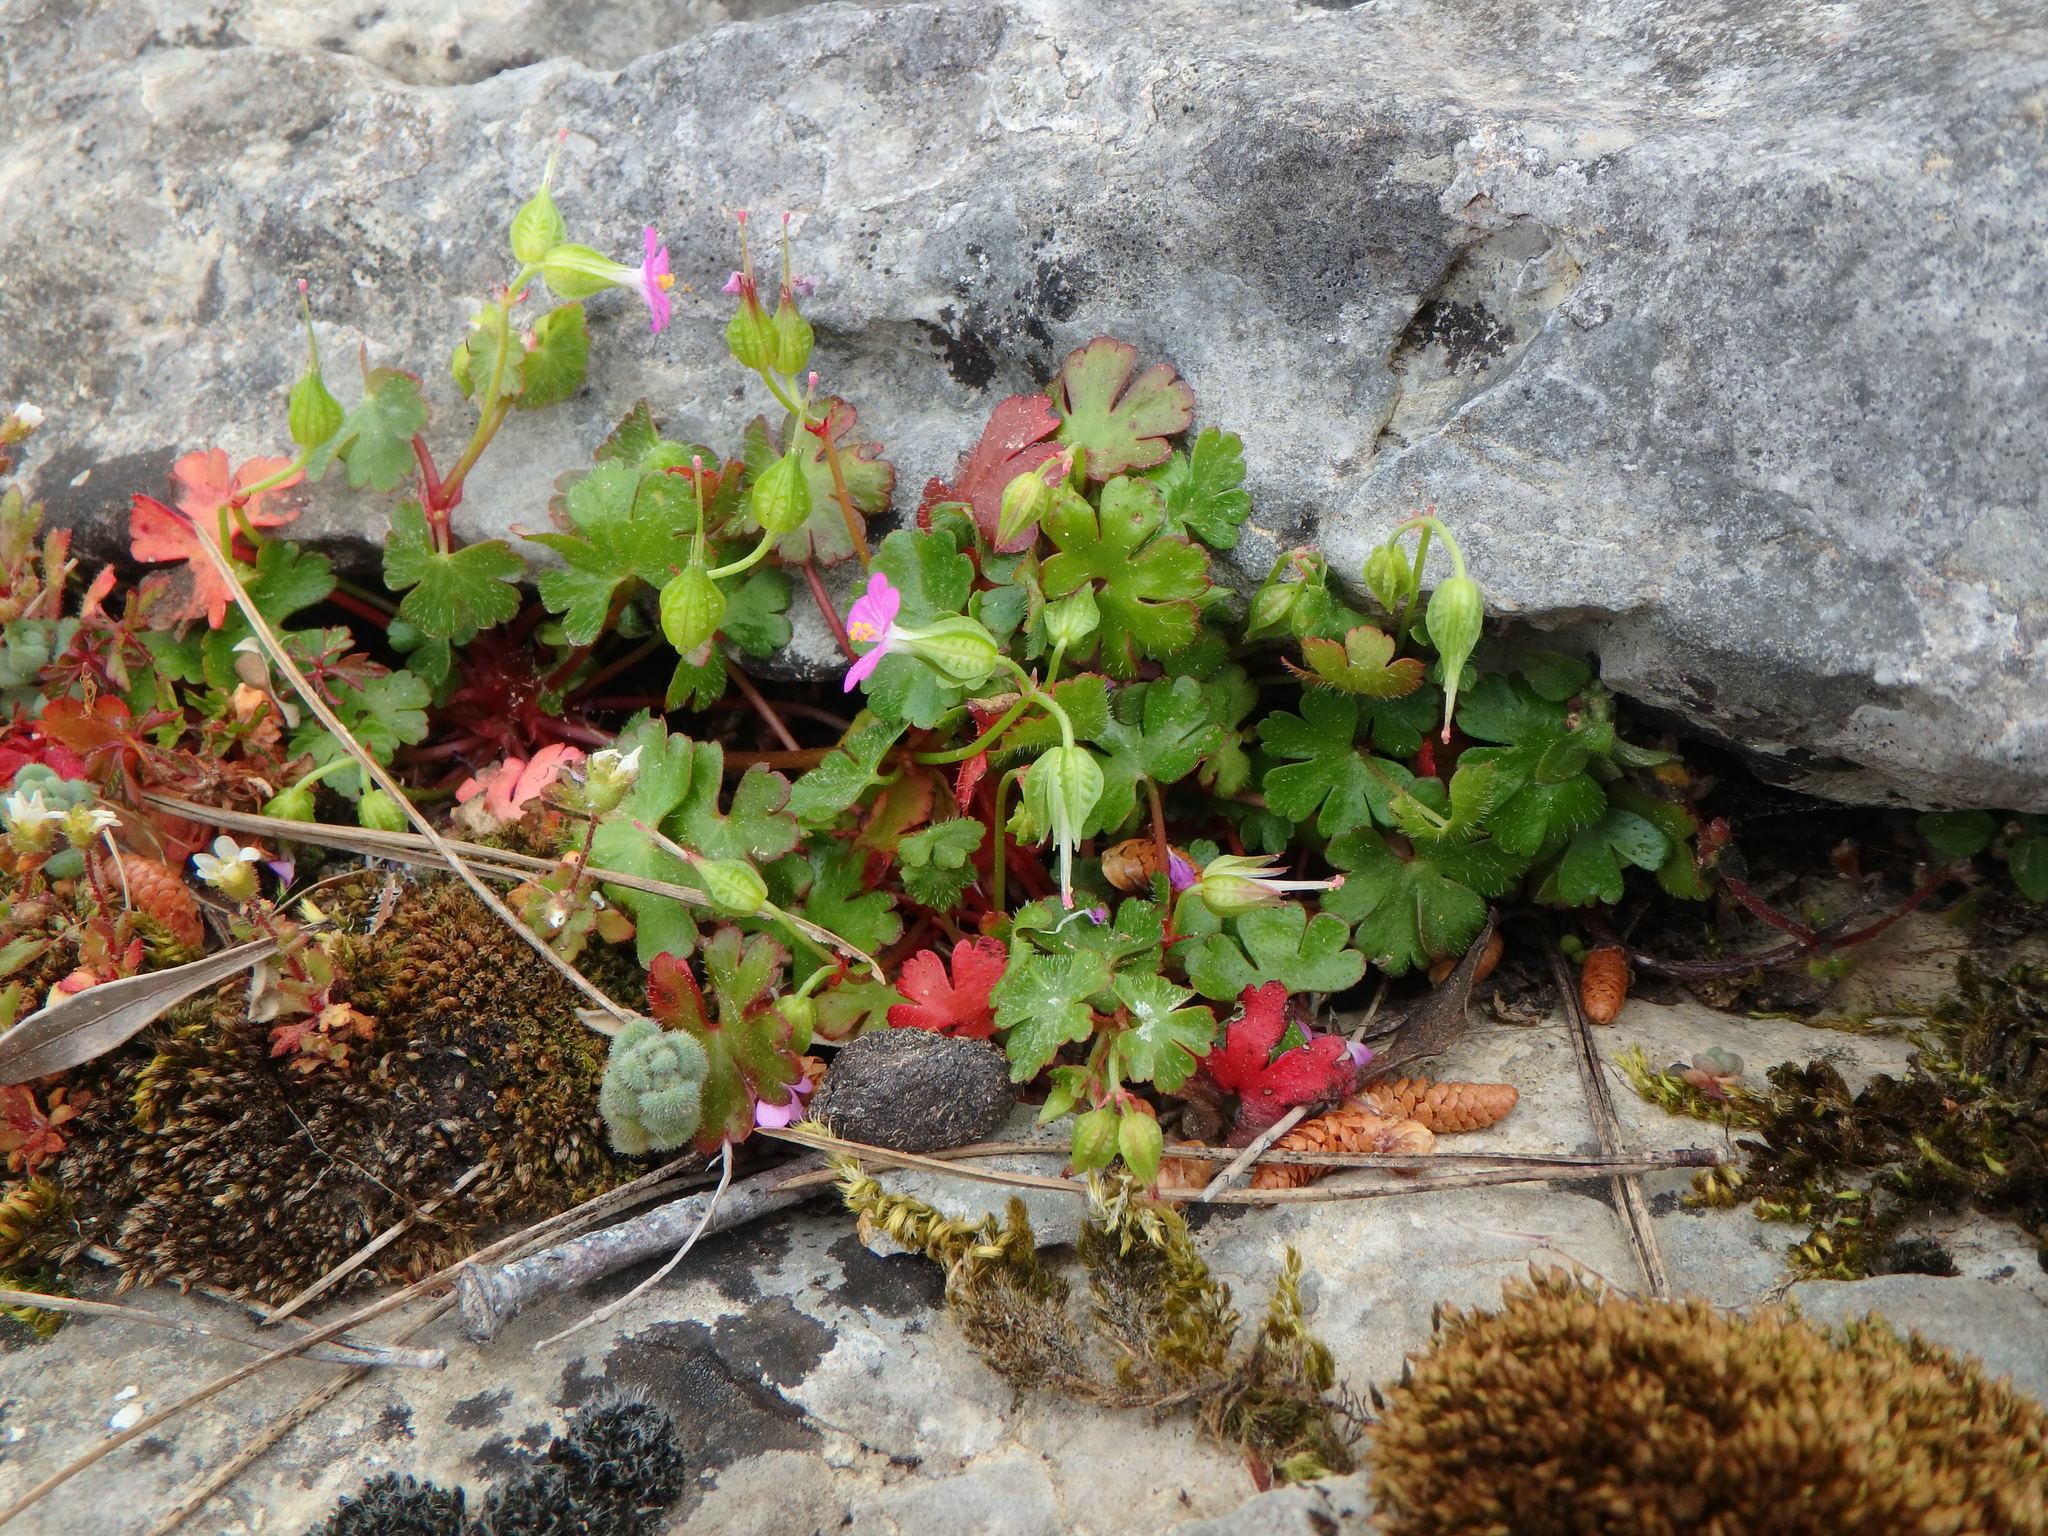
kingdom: Plantae
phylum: Tracheophyta
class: Magnoliopsida
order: Geraniales
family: Geraniaceae
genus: Geranium
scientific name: Geranium lucidum
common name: Shining crane's-bill
